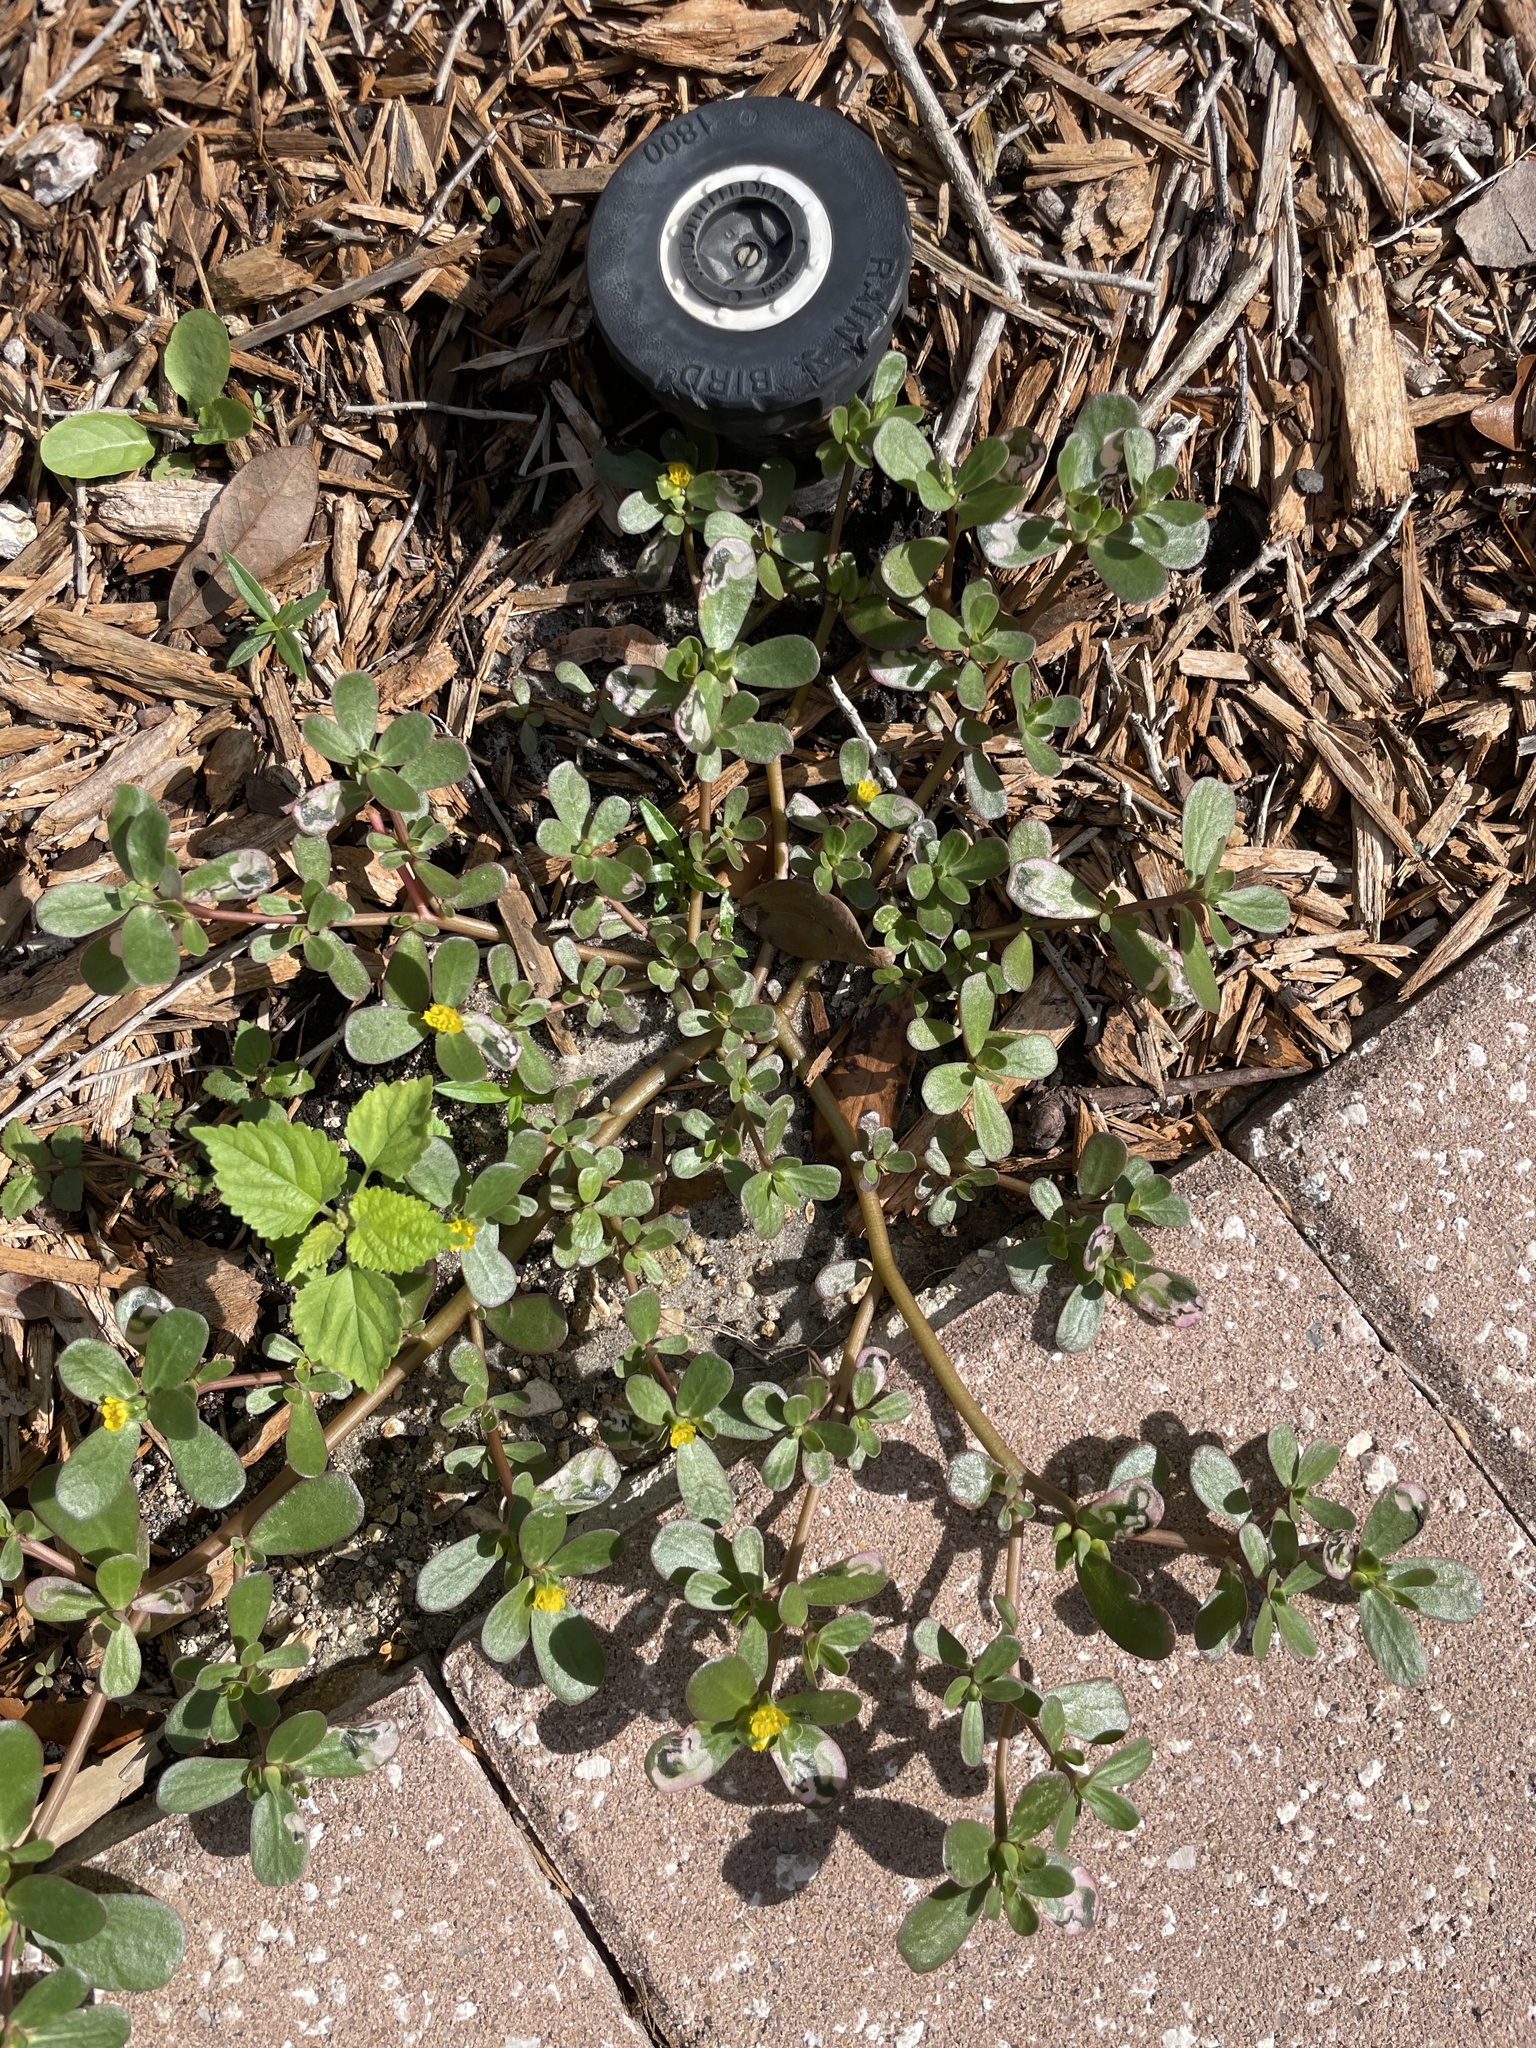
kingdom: Plantae
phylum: Tracheophyta
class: Magnoliopsida
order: Caryophyllales
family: Portulacaceae
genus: Portulaca
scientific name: Portulaca oleracea
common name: Common purslane
